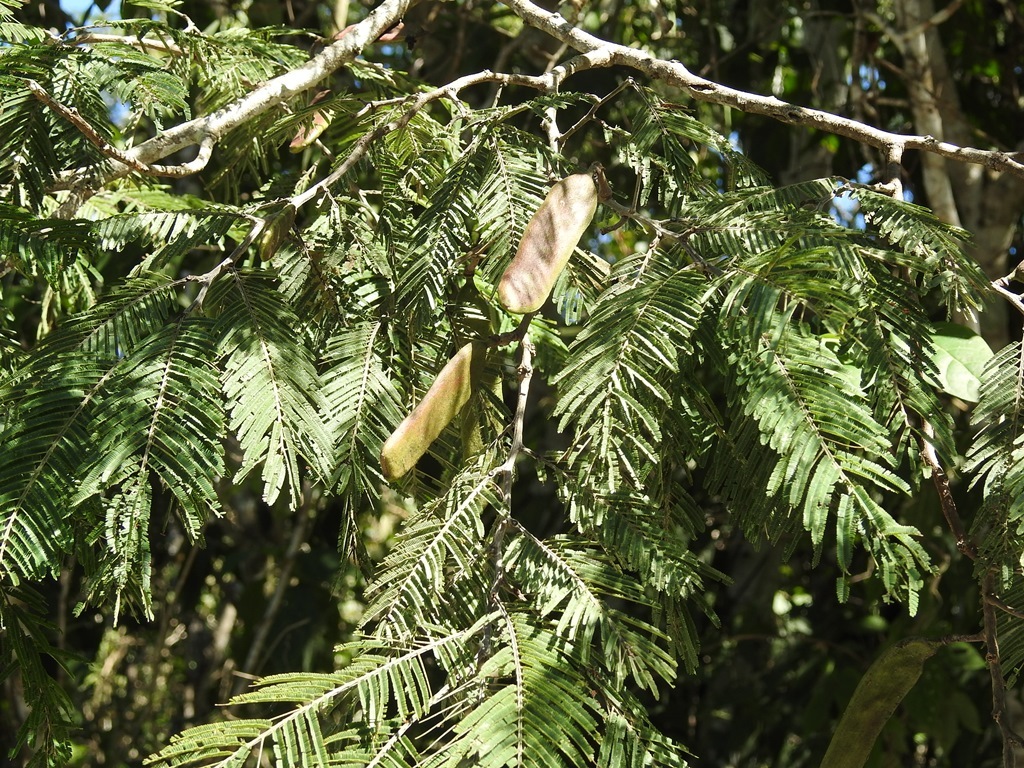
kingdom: Plantae
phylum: Tracheophyta
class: Magnoliopsida
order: Fabales
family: Fabaceae
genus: Vachellia
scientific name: Vachellia pennatula
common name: Fern-leaf acacia
